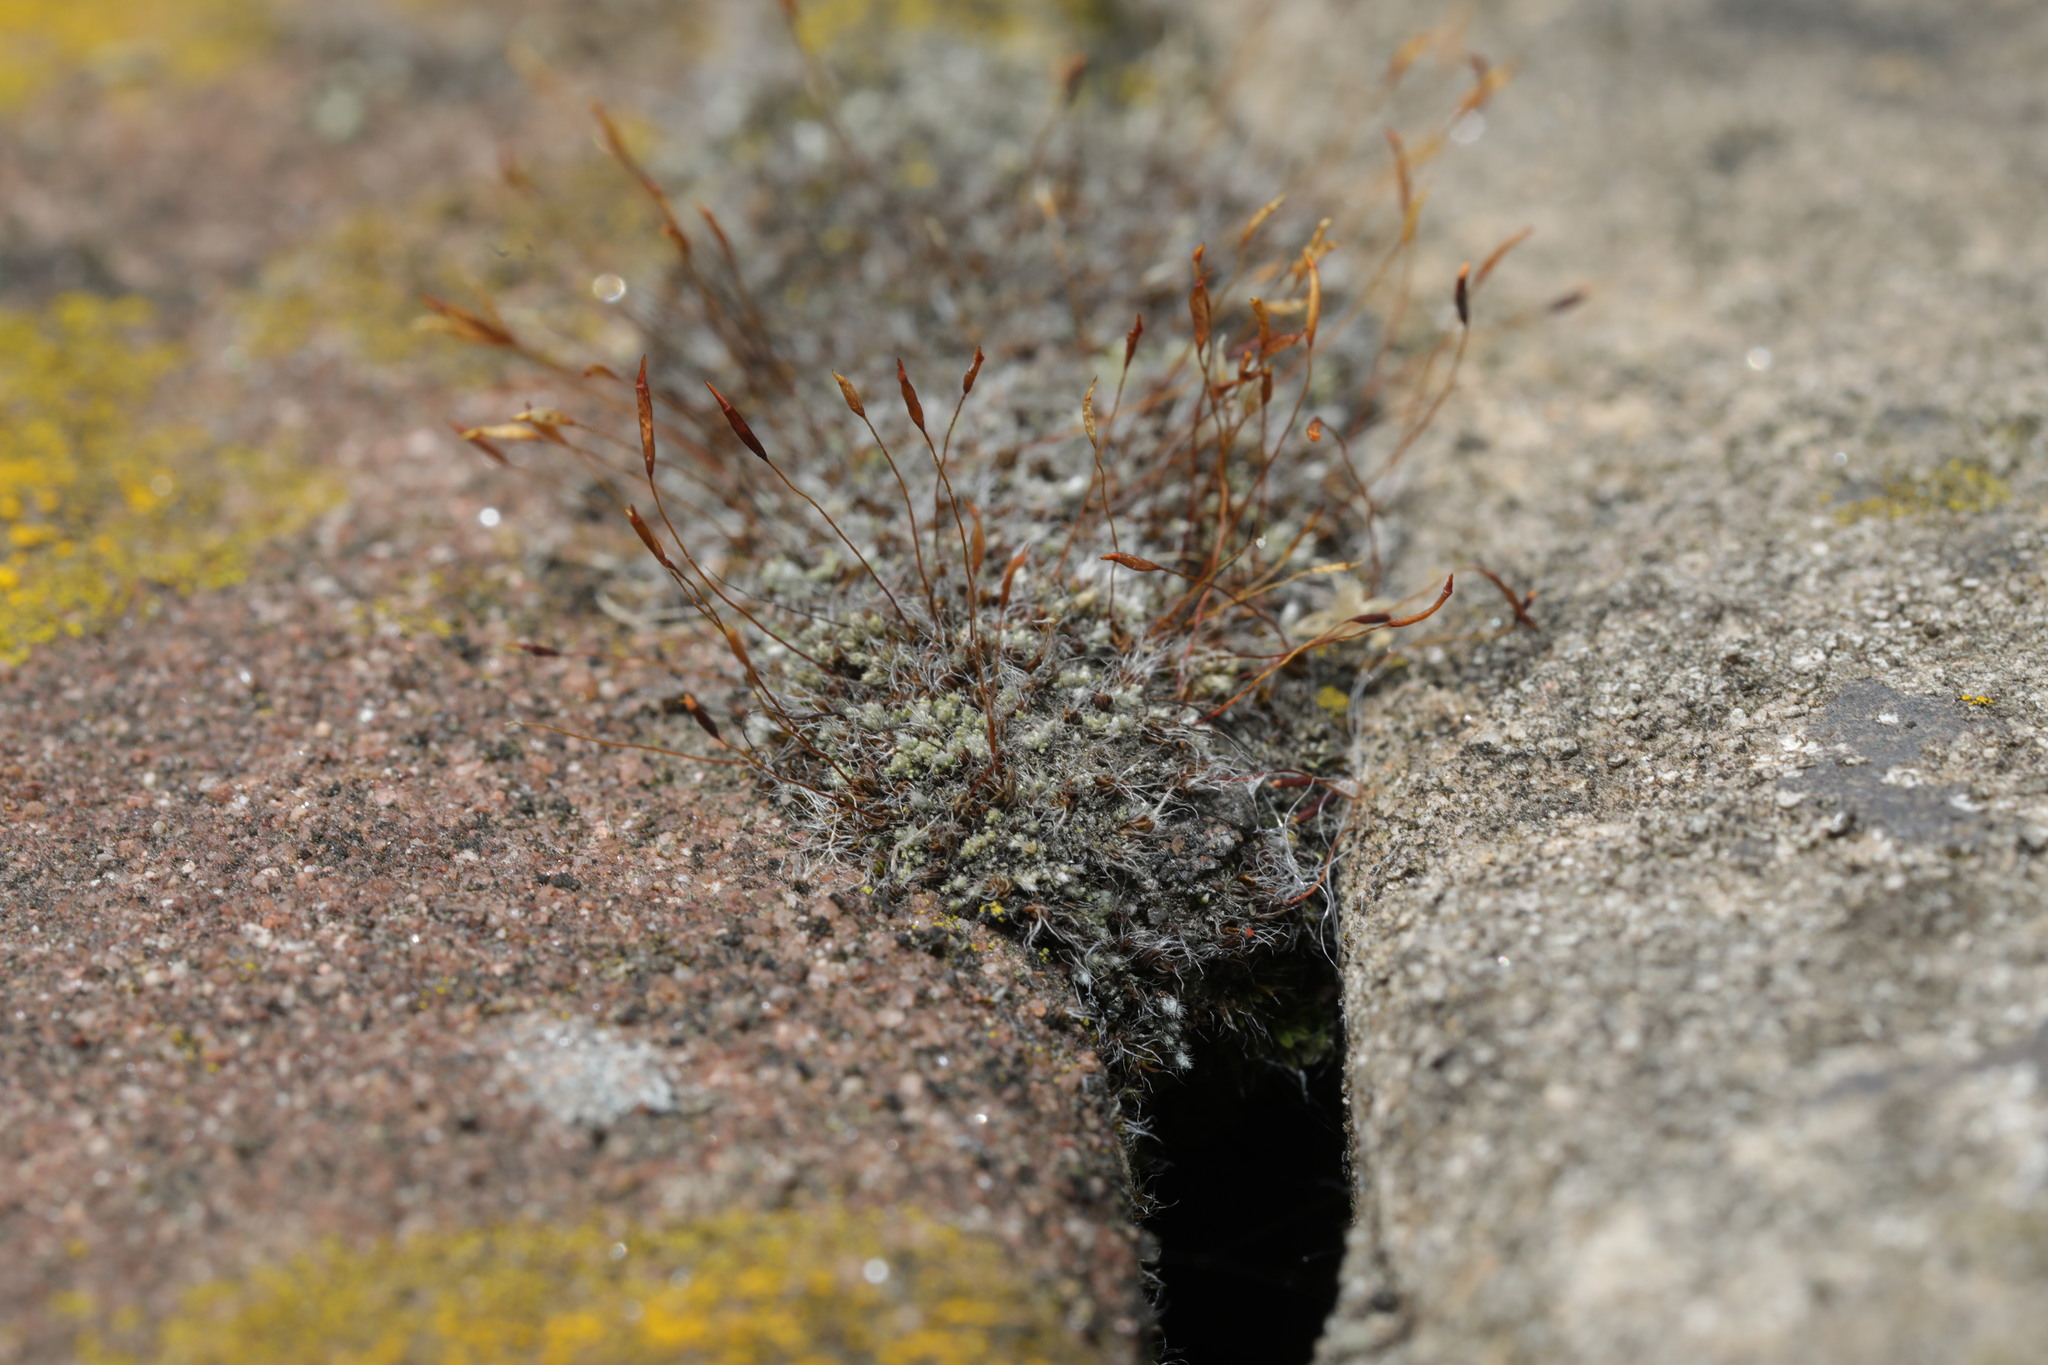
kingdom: Plantae
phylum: Bryophyta
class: Bryopsida
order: Pottiales
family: Pottiaceae
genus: Tortula
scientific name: Tortula muralis
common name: Wall screw-moss
